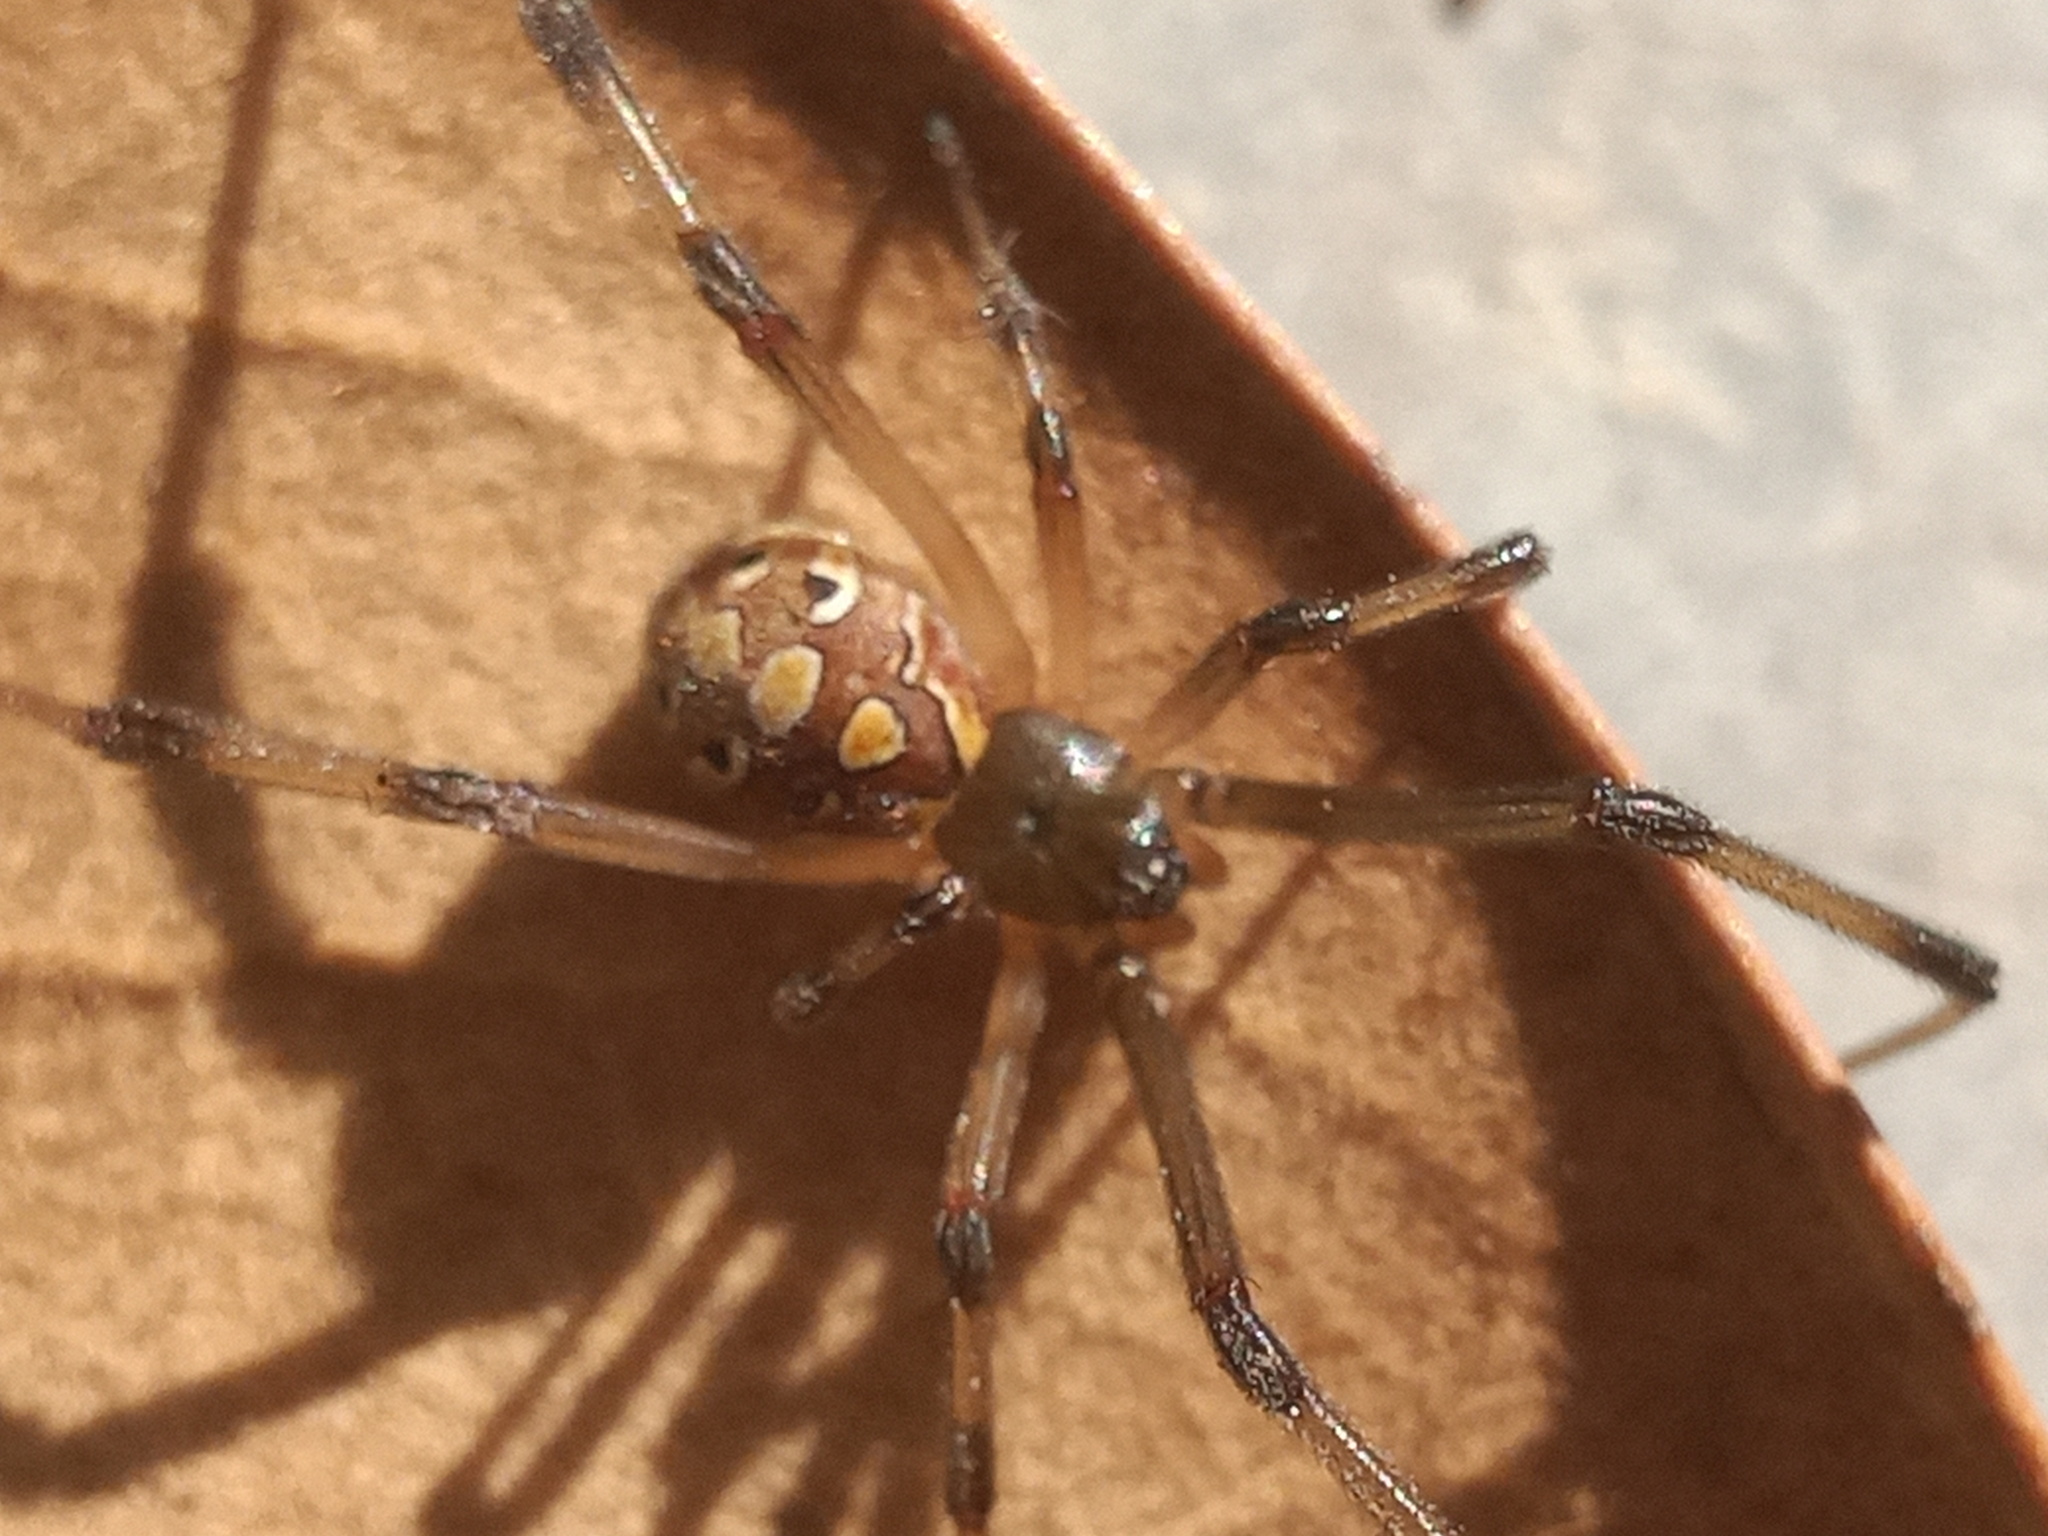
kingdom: Animalia
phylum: Arthropoda
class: Arachnida
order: Araneae
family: Theridiidae
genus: Latrodectus
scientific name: Latrodectus geometricus
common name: Brown widow spider
